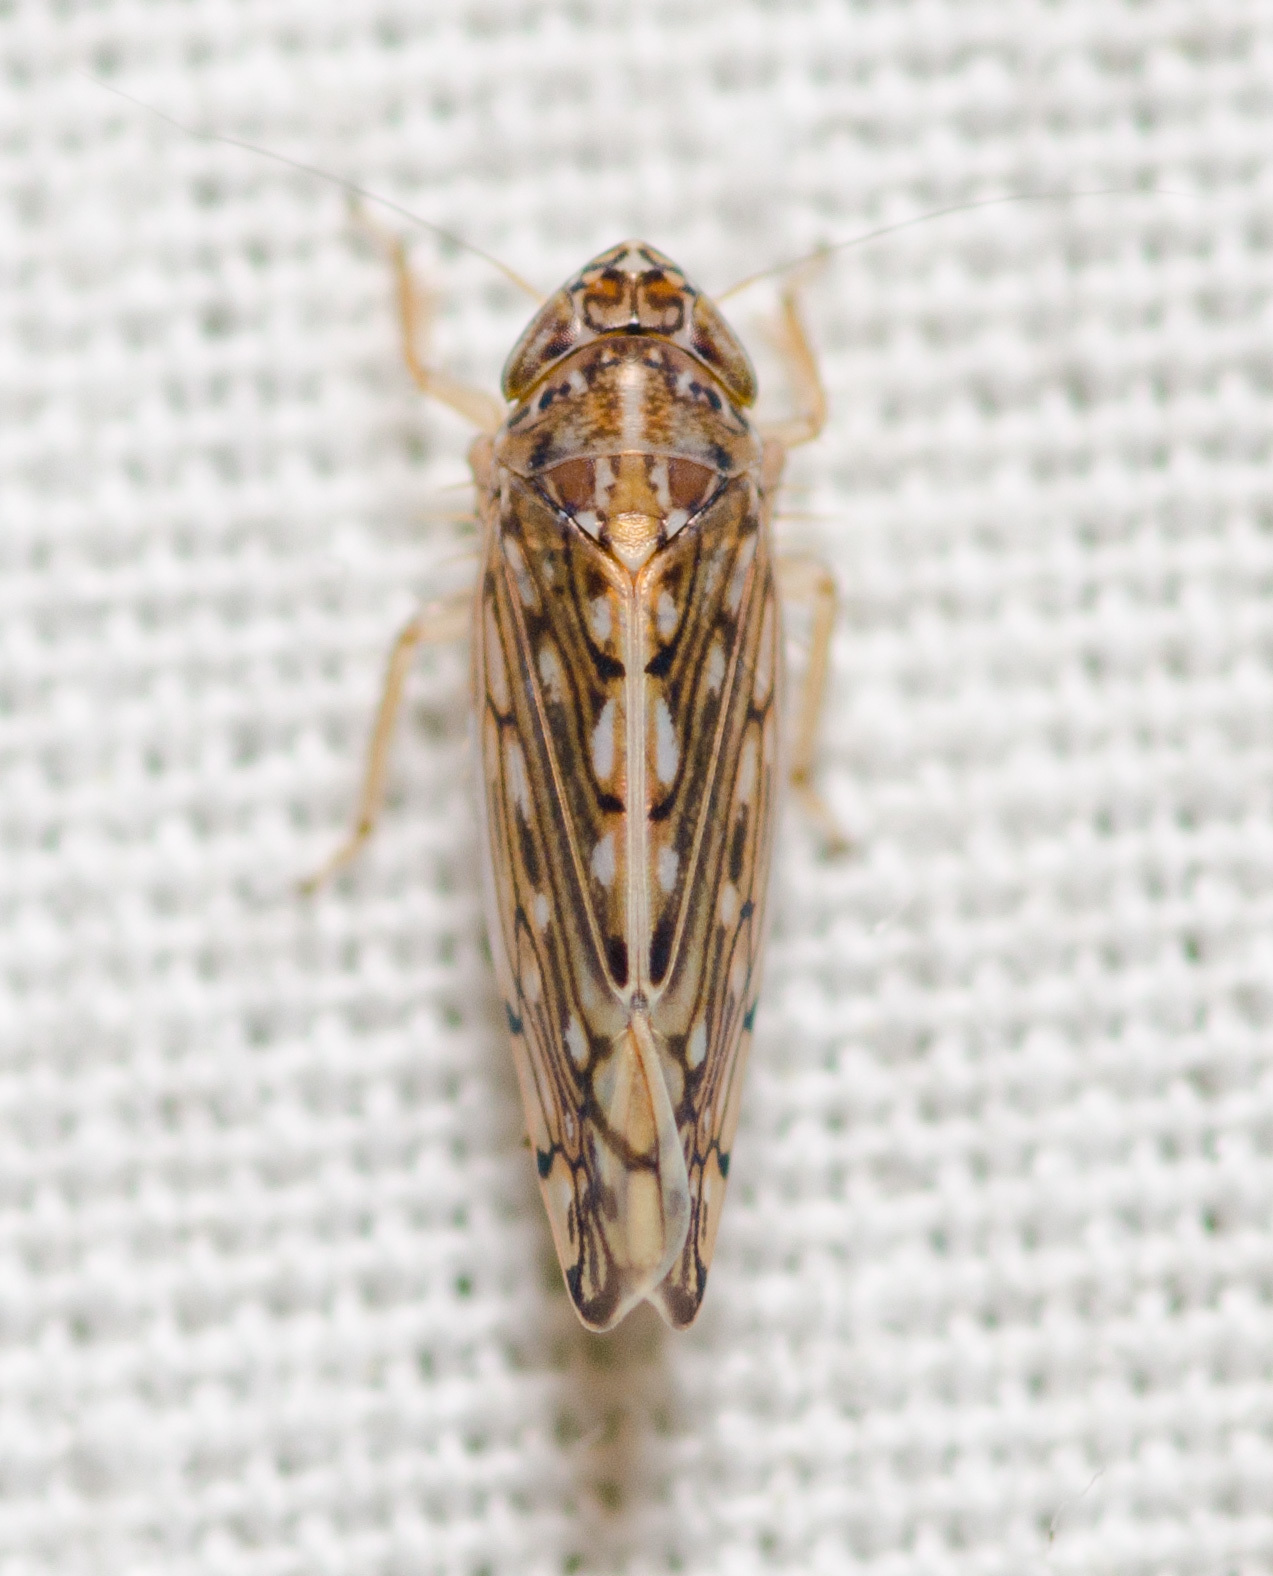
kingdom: Animalia
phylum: Arthropoda
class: Insecta
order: Hemiptera
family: Cicadellidae
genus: Osbornellus
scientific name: Osbornellus clarus
